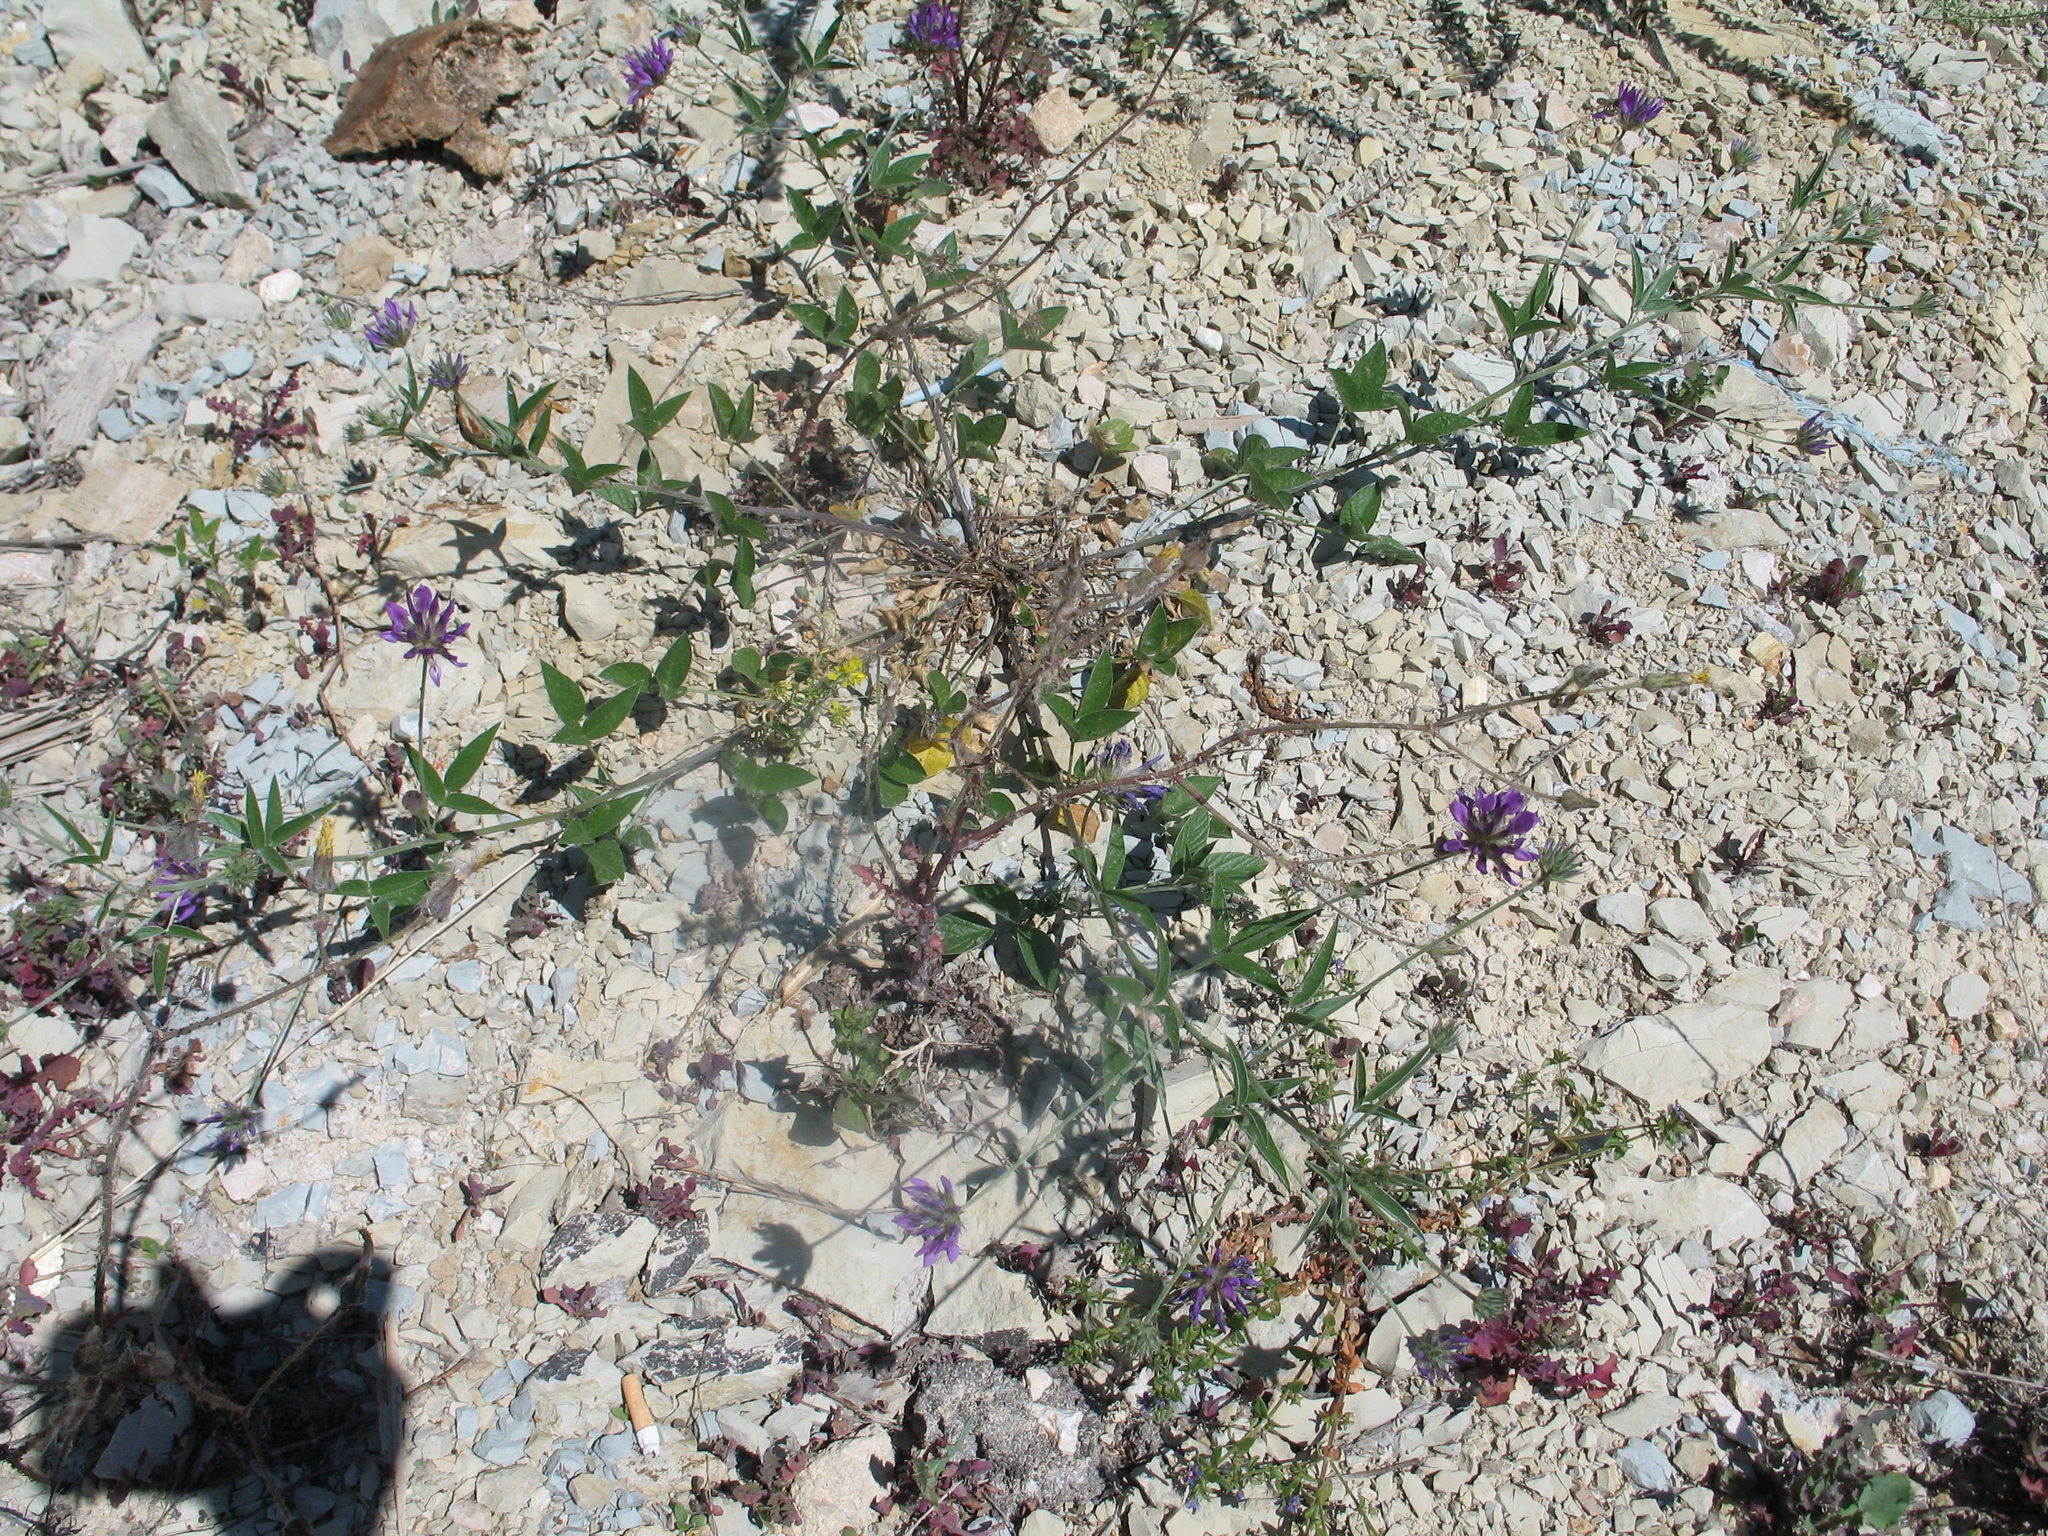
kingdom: Plantae
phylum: Tracheophyta
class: Magnoliopsida
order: Fabales
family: Fabaceae
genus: Bituminaria
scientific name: Bituminaria plumosa
